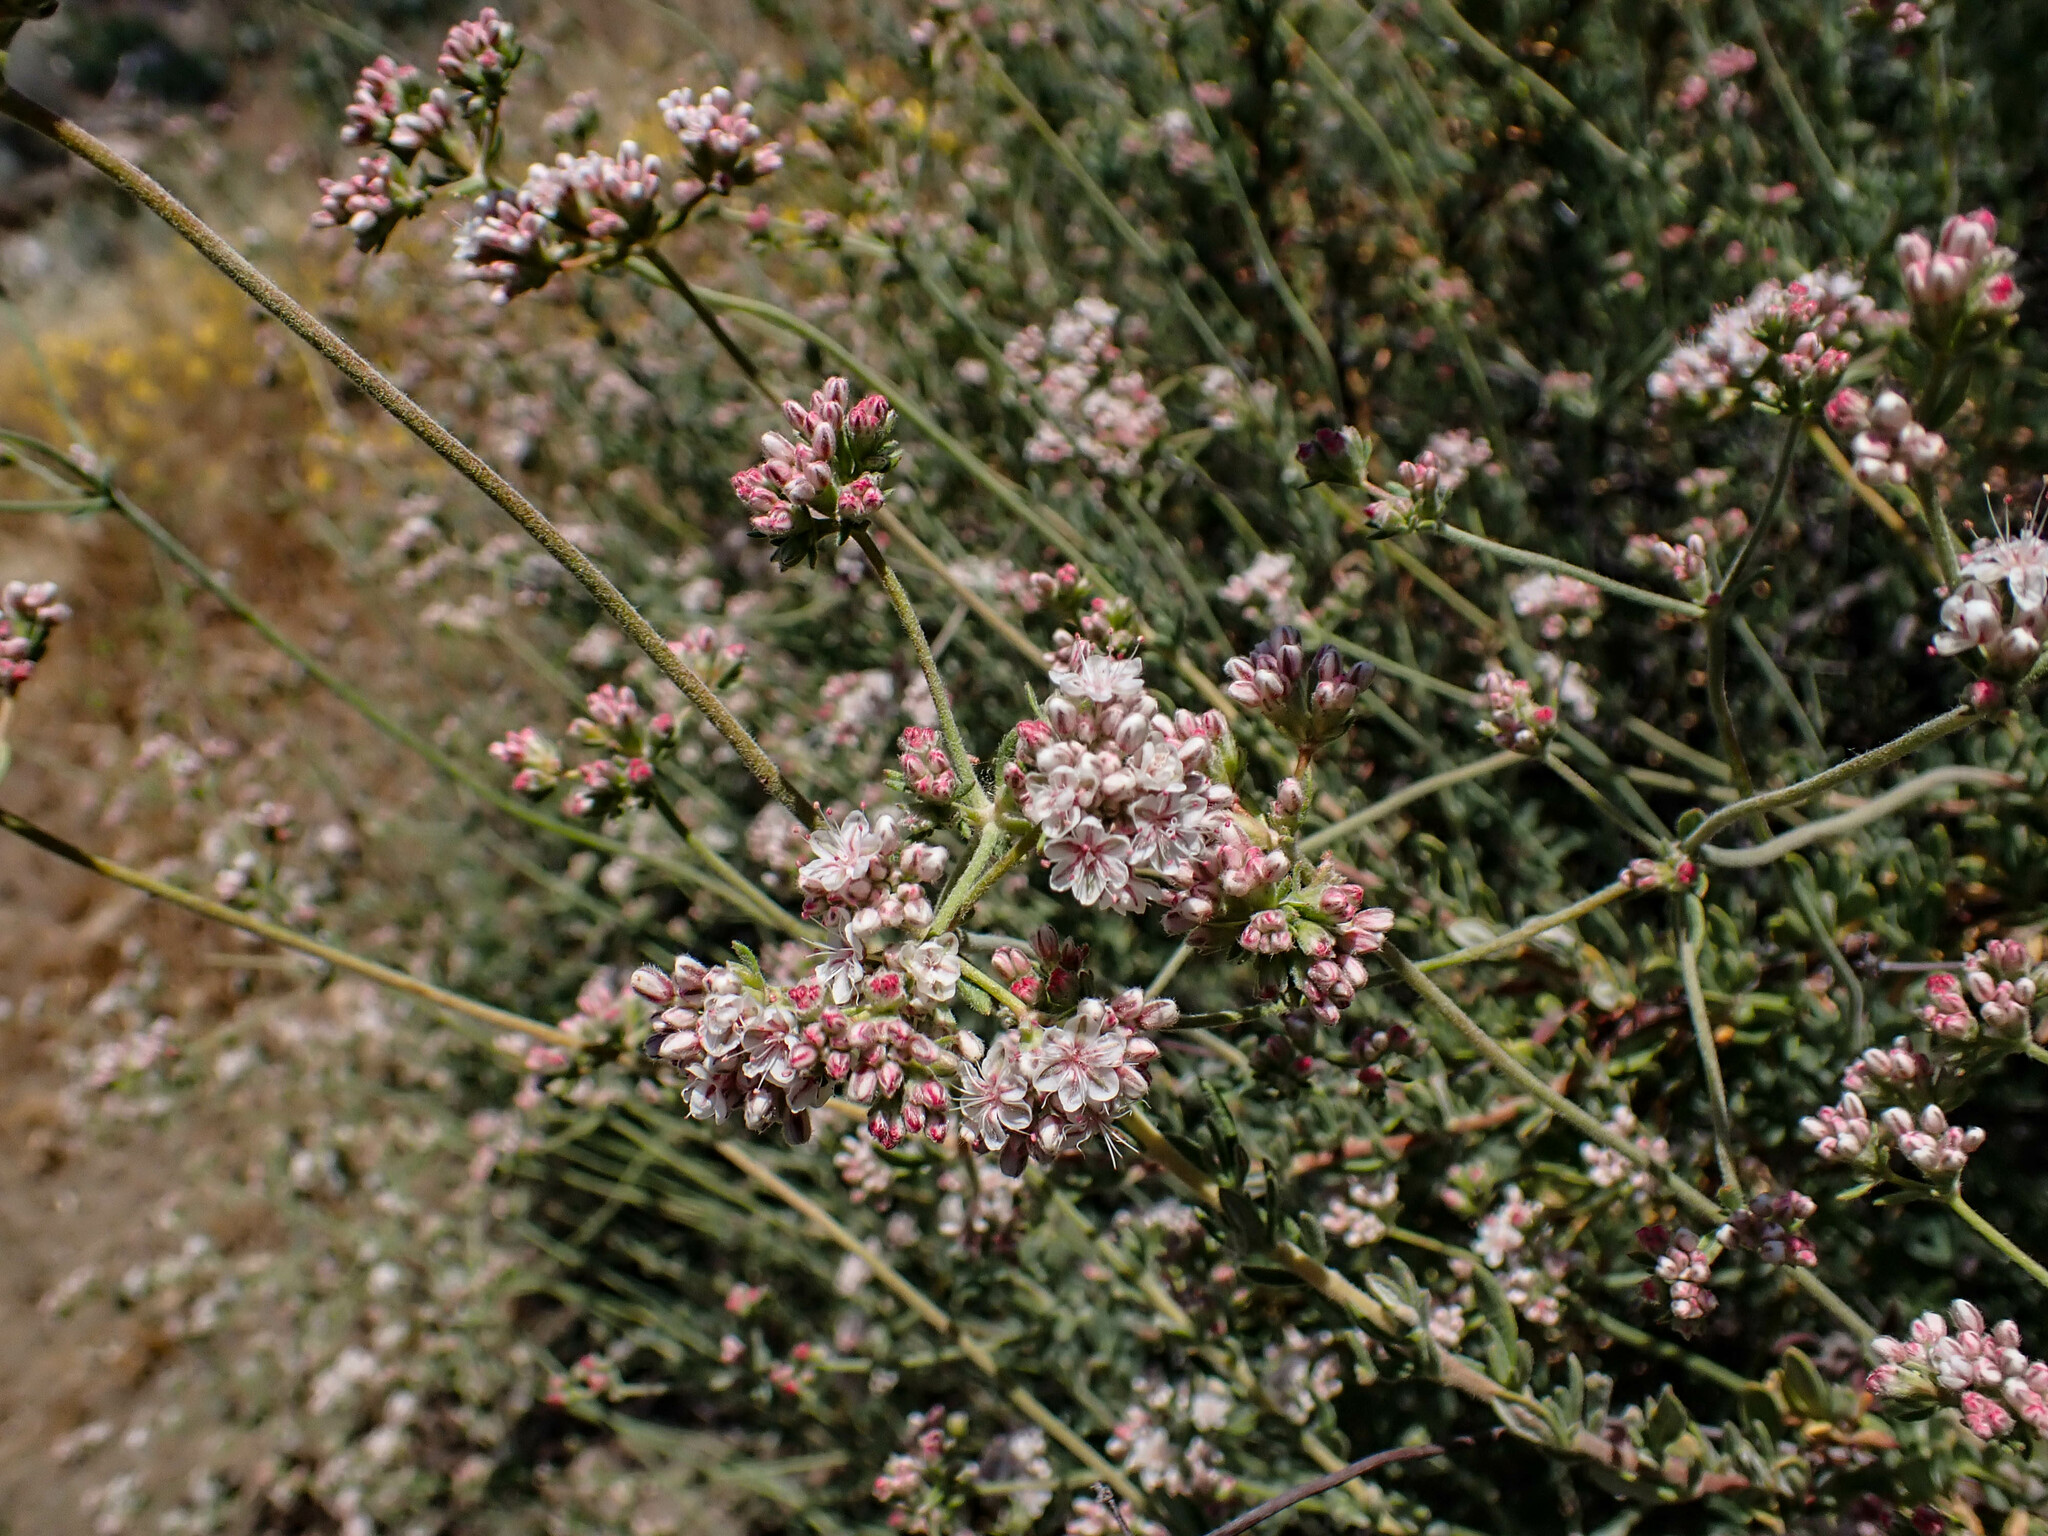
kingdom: Plantae
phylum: Tracheophyta
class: Magnoliopsida
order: Caryophyllales
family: Polygonaceae
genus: Eriogonum
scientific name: Eriogonum fasciculatum
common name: California wild buckwheat
